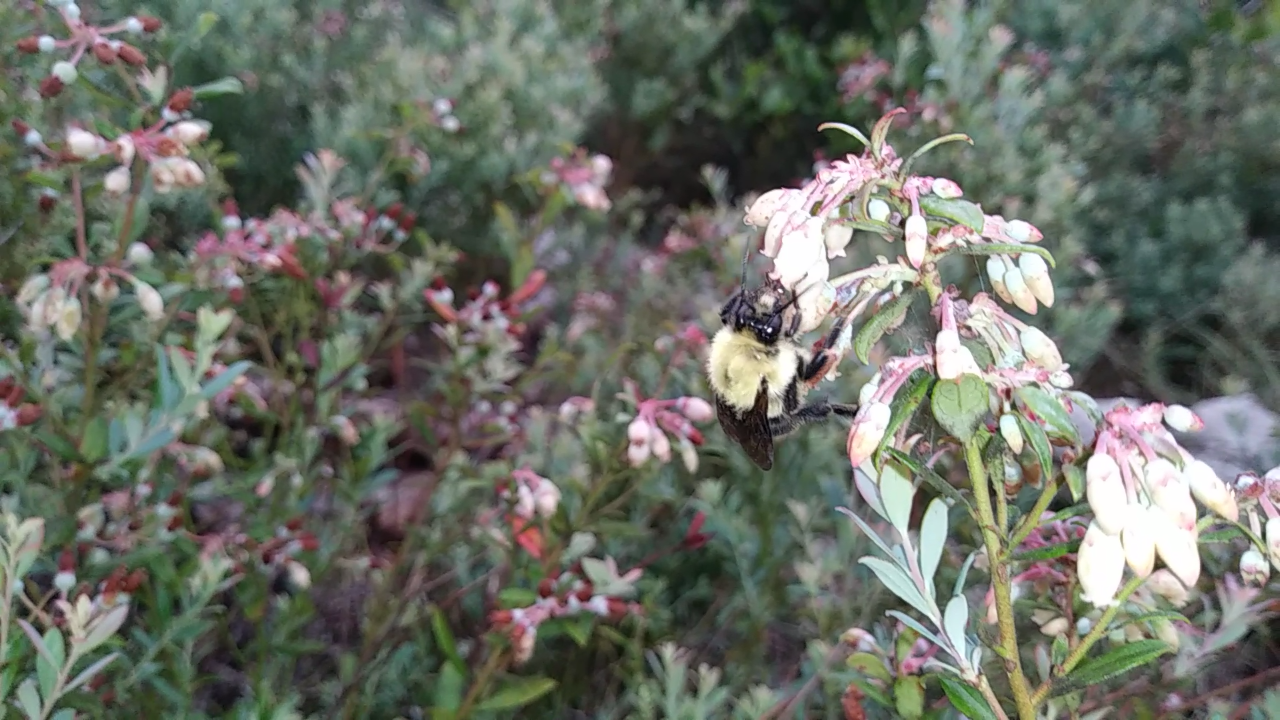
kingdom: Animalia
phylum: Arthropoda
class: Insecta
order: Hymenoptera
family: Apidae
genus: Bombus
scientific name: Bombus bimaculatus
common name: Two-spotted bumble bee
